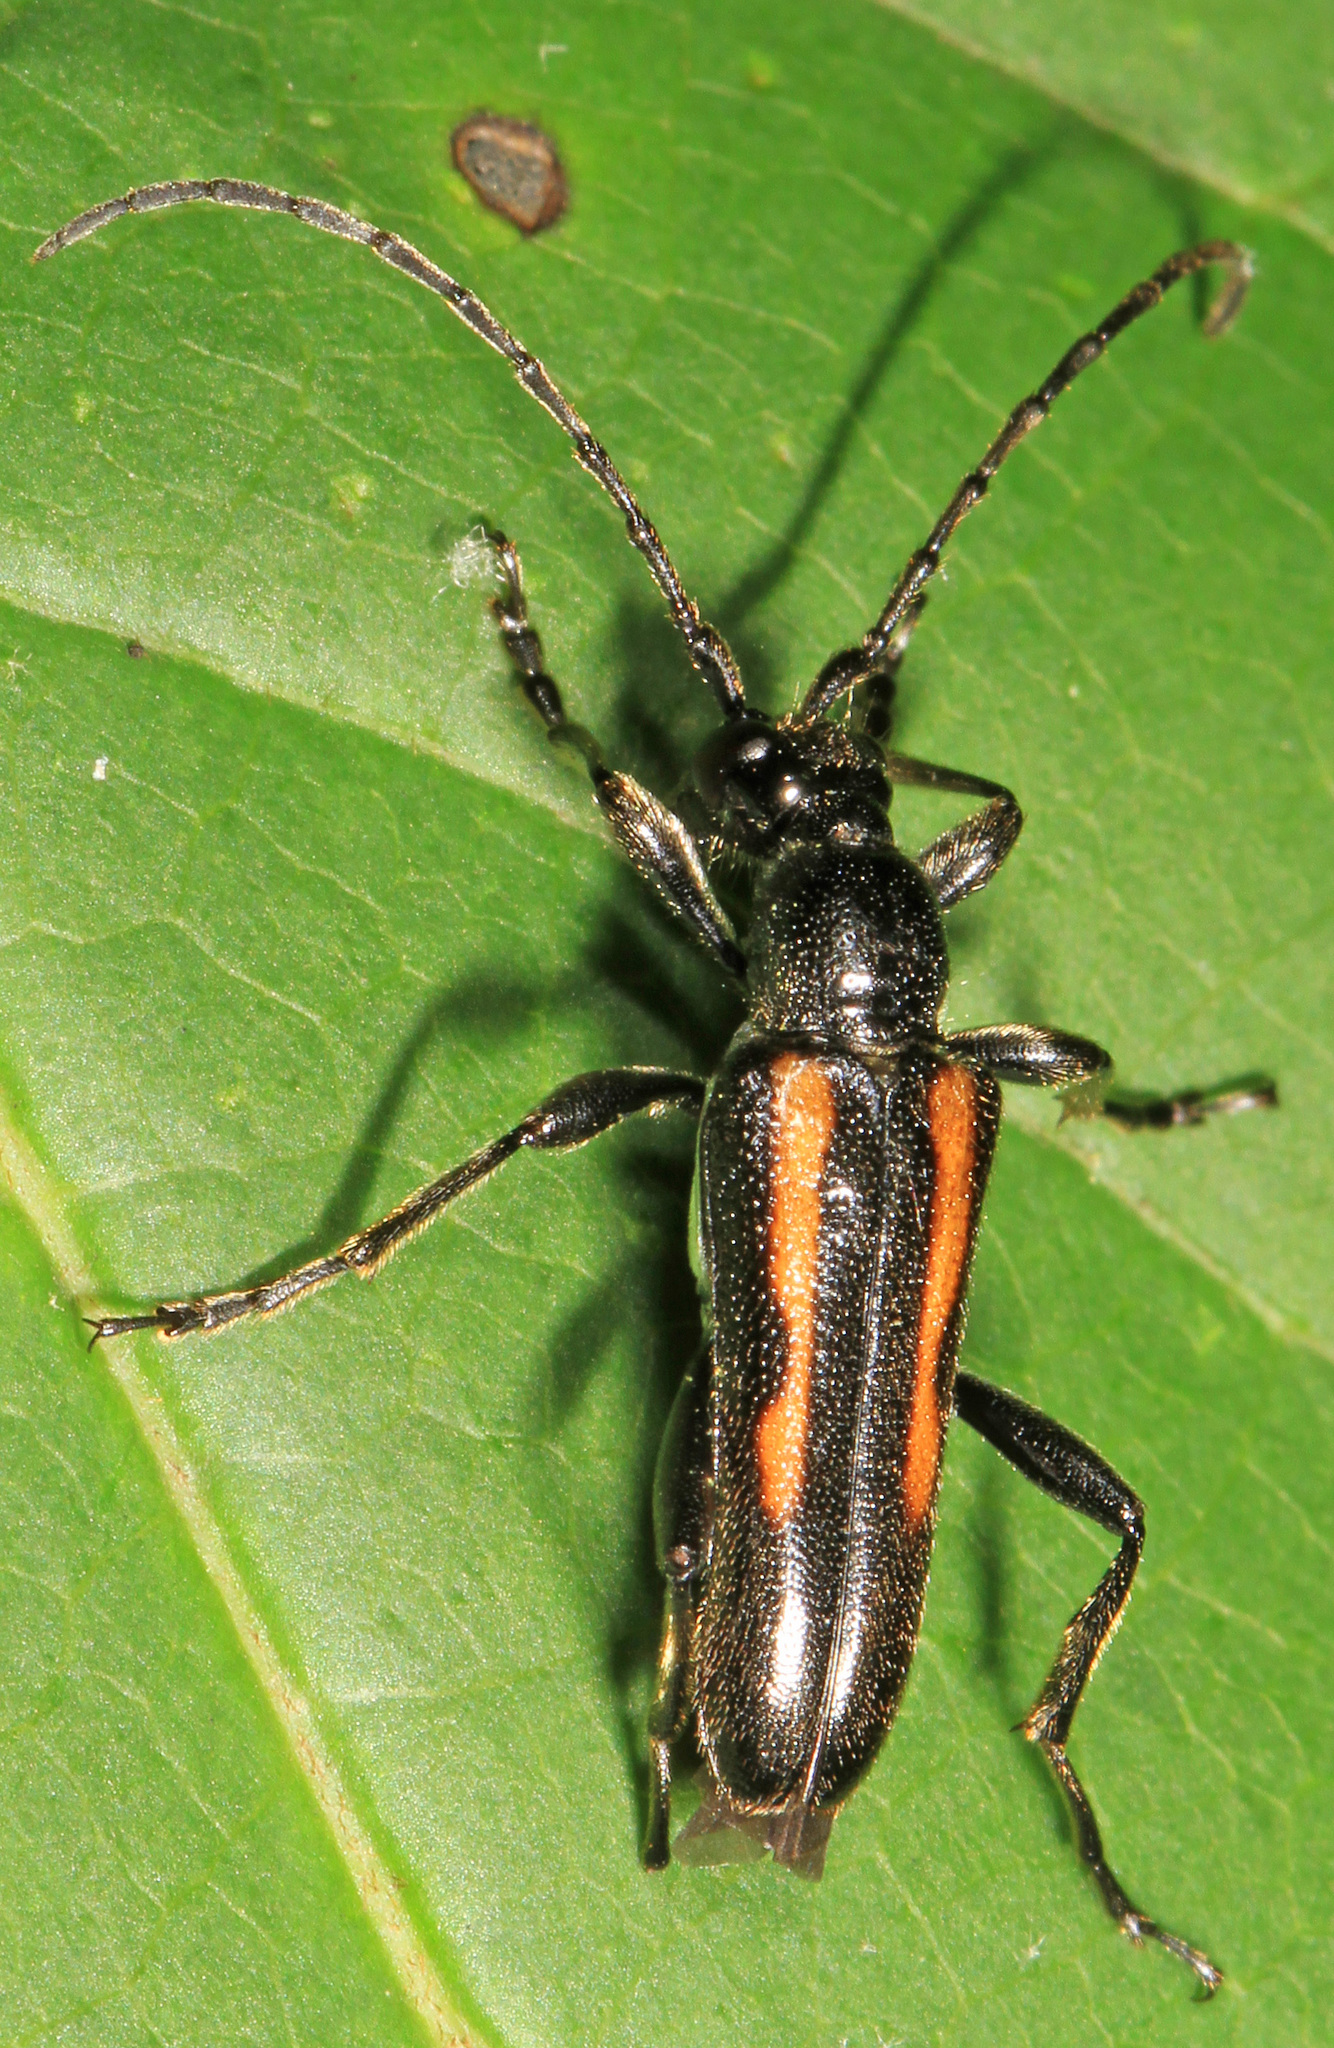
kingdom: Animalia
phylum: Arthropoda
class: Insecta
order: Coleoptera
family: Cerambycidae
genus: Strangalepta
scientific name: Strangalepta abbreviata
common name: Strangalepta flower longhorn beetle
